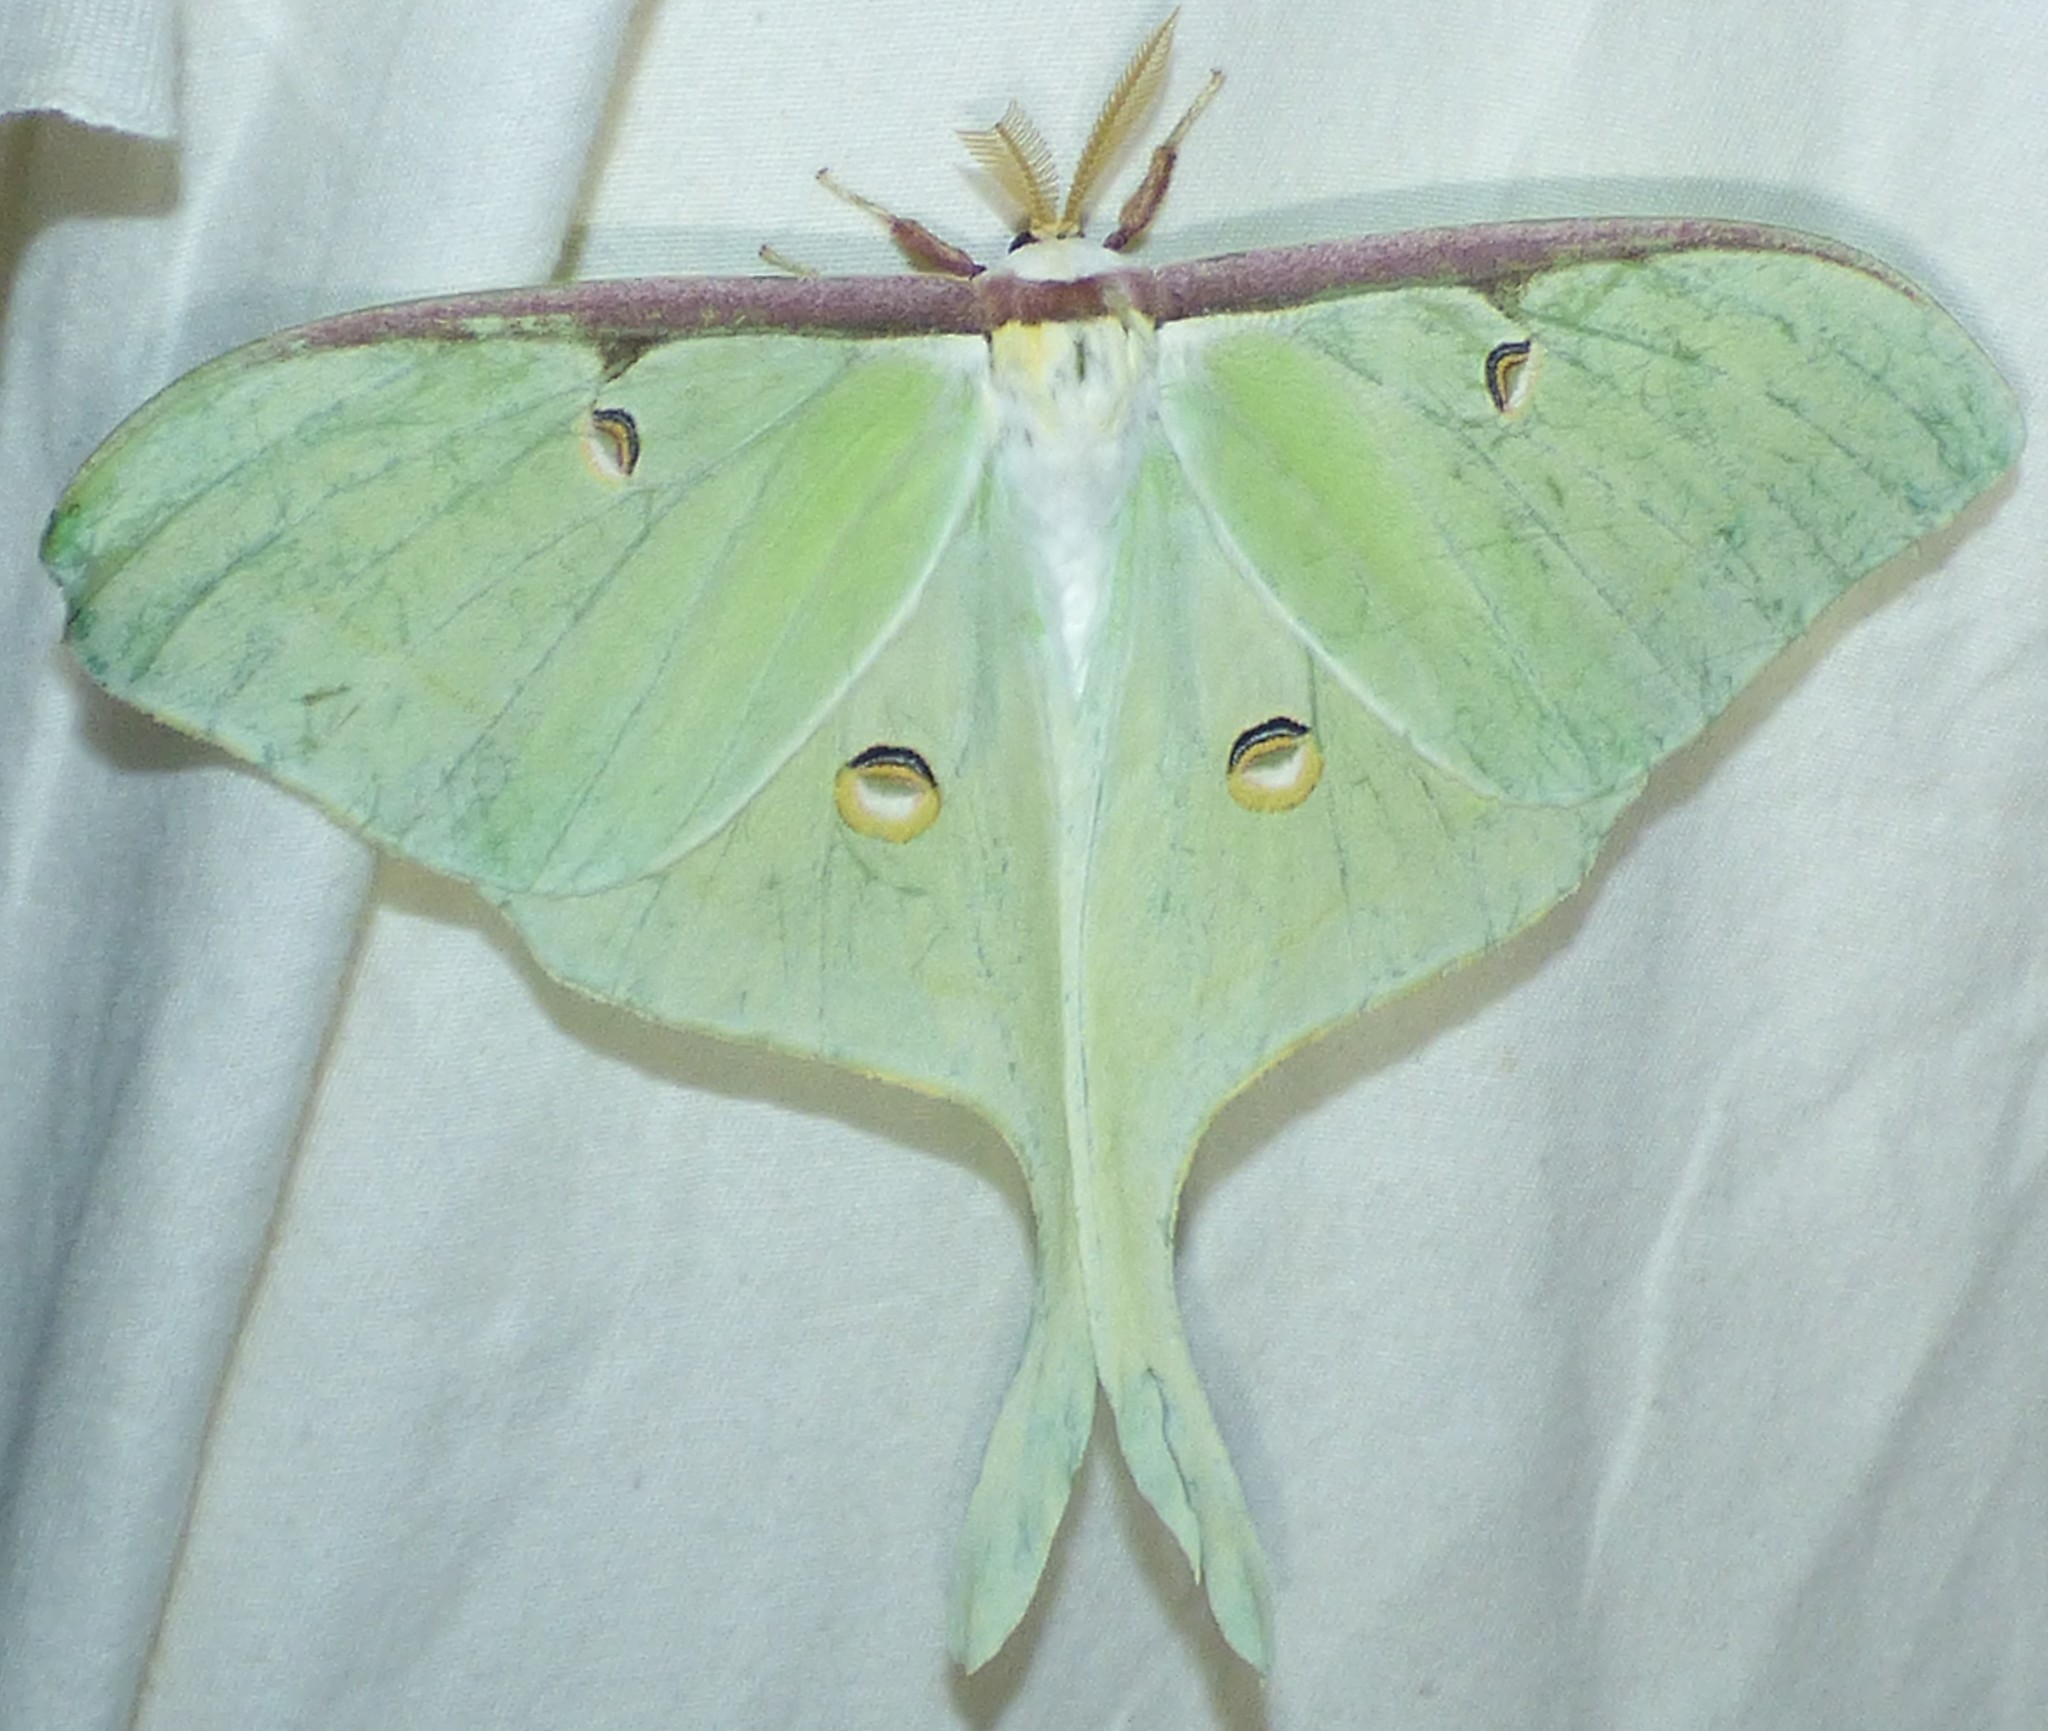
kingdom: Animalia
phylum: Arthropoda
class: Insecta
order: Lepidoptera
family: Saturniidae
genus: Actias
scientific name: Actias luna
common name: Luna moth
